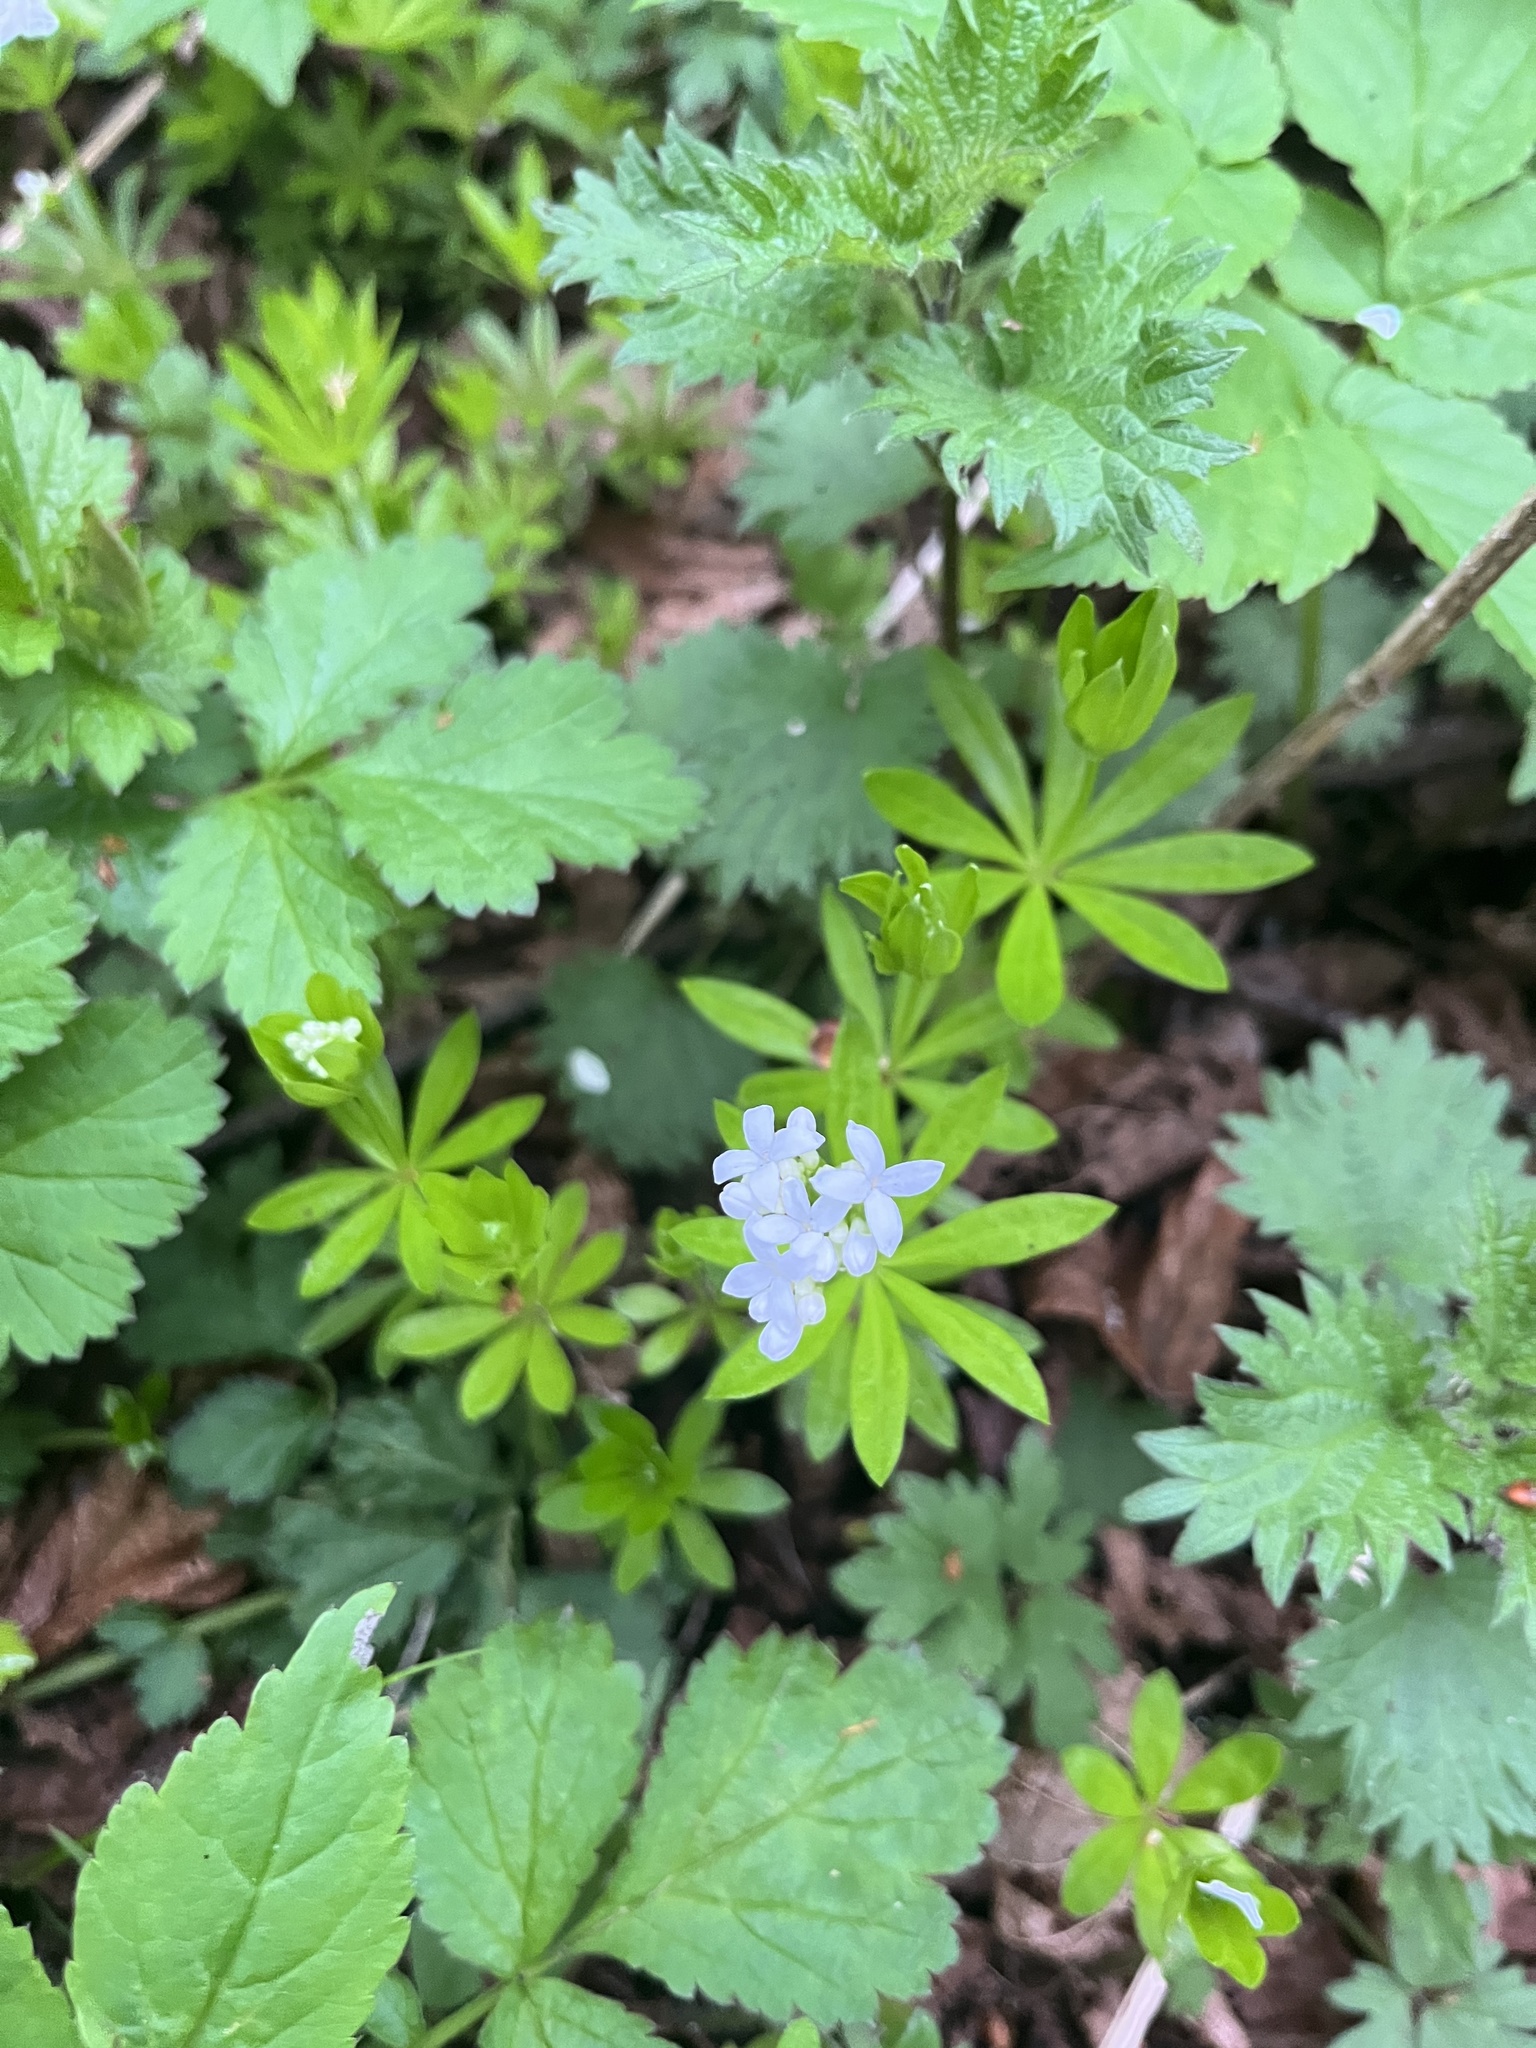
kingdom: Plantae
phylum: Tracheophyta
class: Magnoliopsida
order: Gentianales
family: Rubiaceae
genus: Galium
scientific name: Galium odoratum
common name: Sweet woodruff
